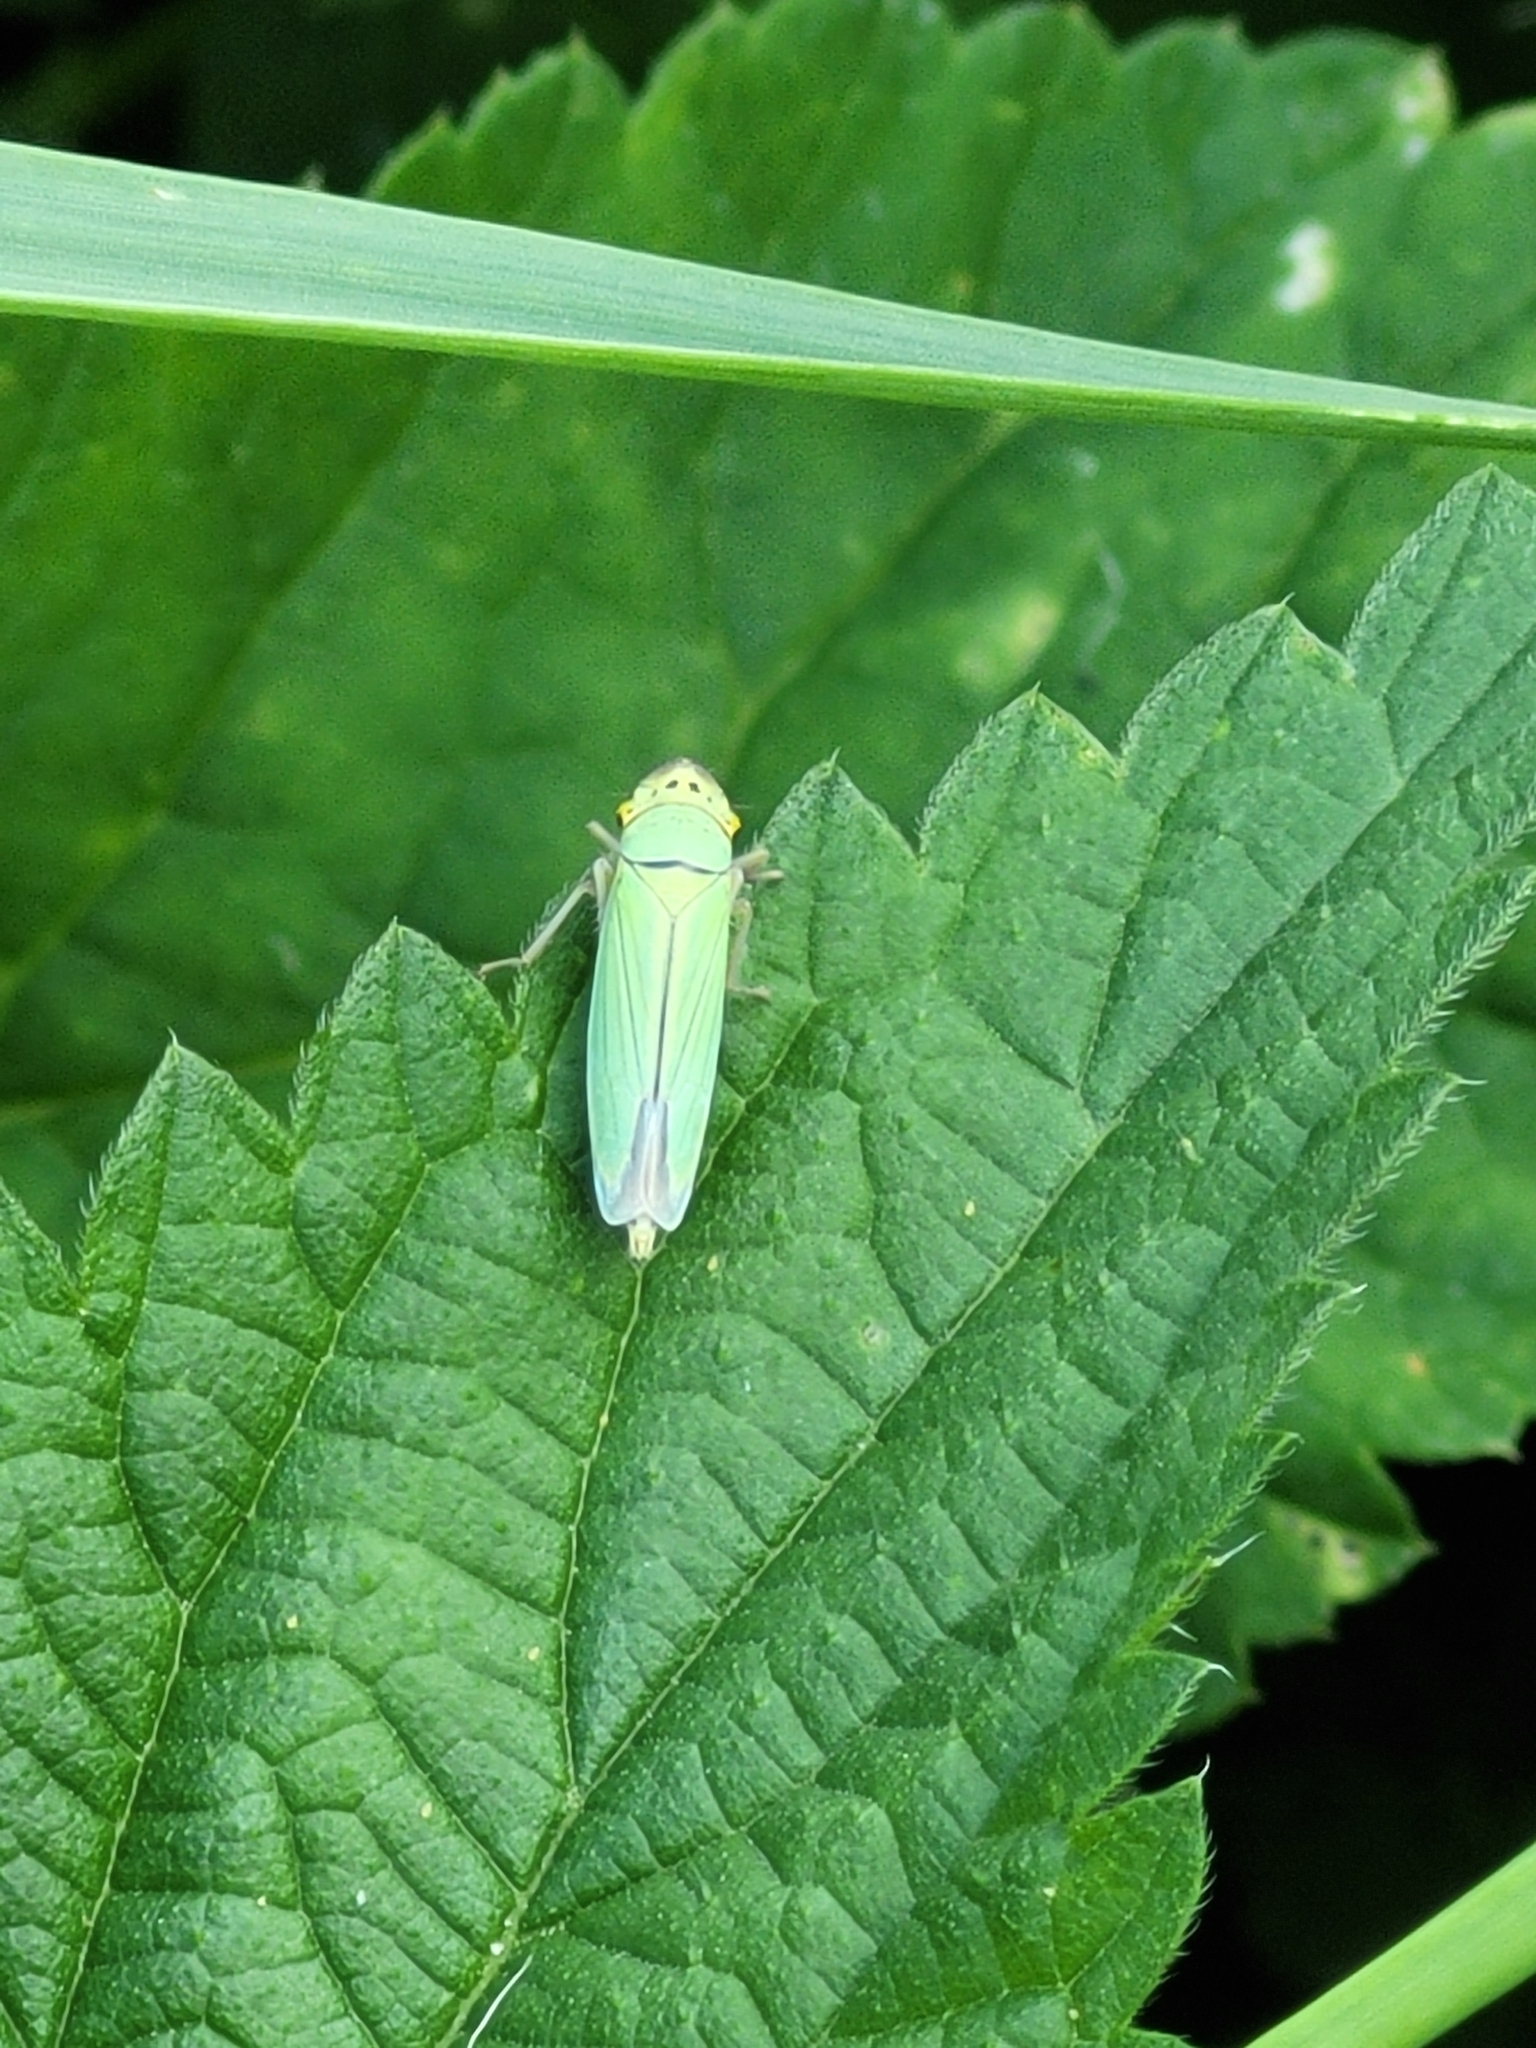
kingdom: Animalia
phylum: Arthropoda
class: Insecta
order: Hemiptera
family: Cicadellidae
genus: Cicadella
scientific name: Cicadella viridis
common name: Leafhopper
